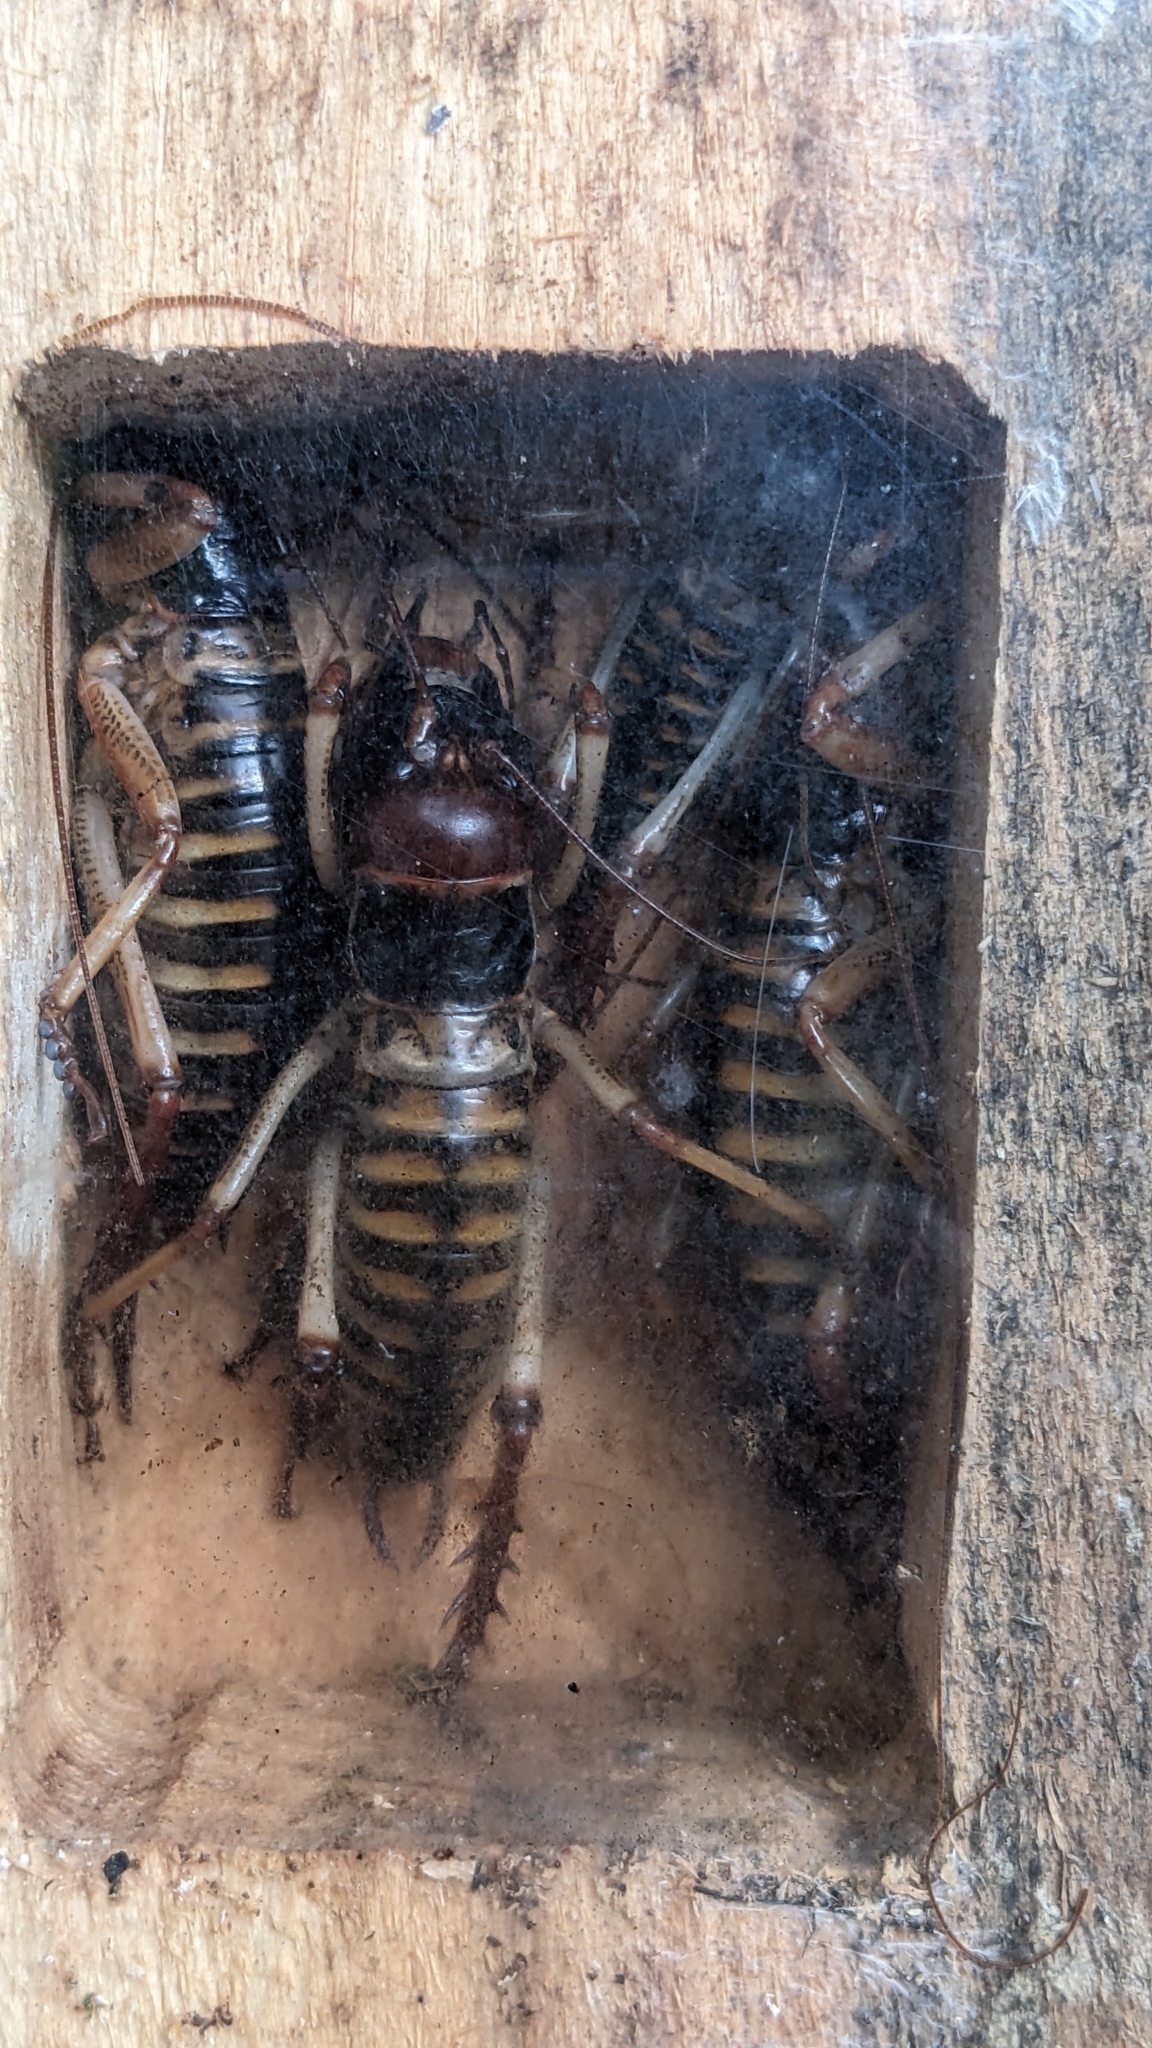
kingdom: Animalia
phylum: Arthropoda
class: Insecta
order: Orthoptera
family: Anostostomatidae
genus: Hemideina
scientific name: Hemideina crassidens
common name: Wellington tree weta
